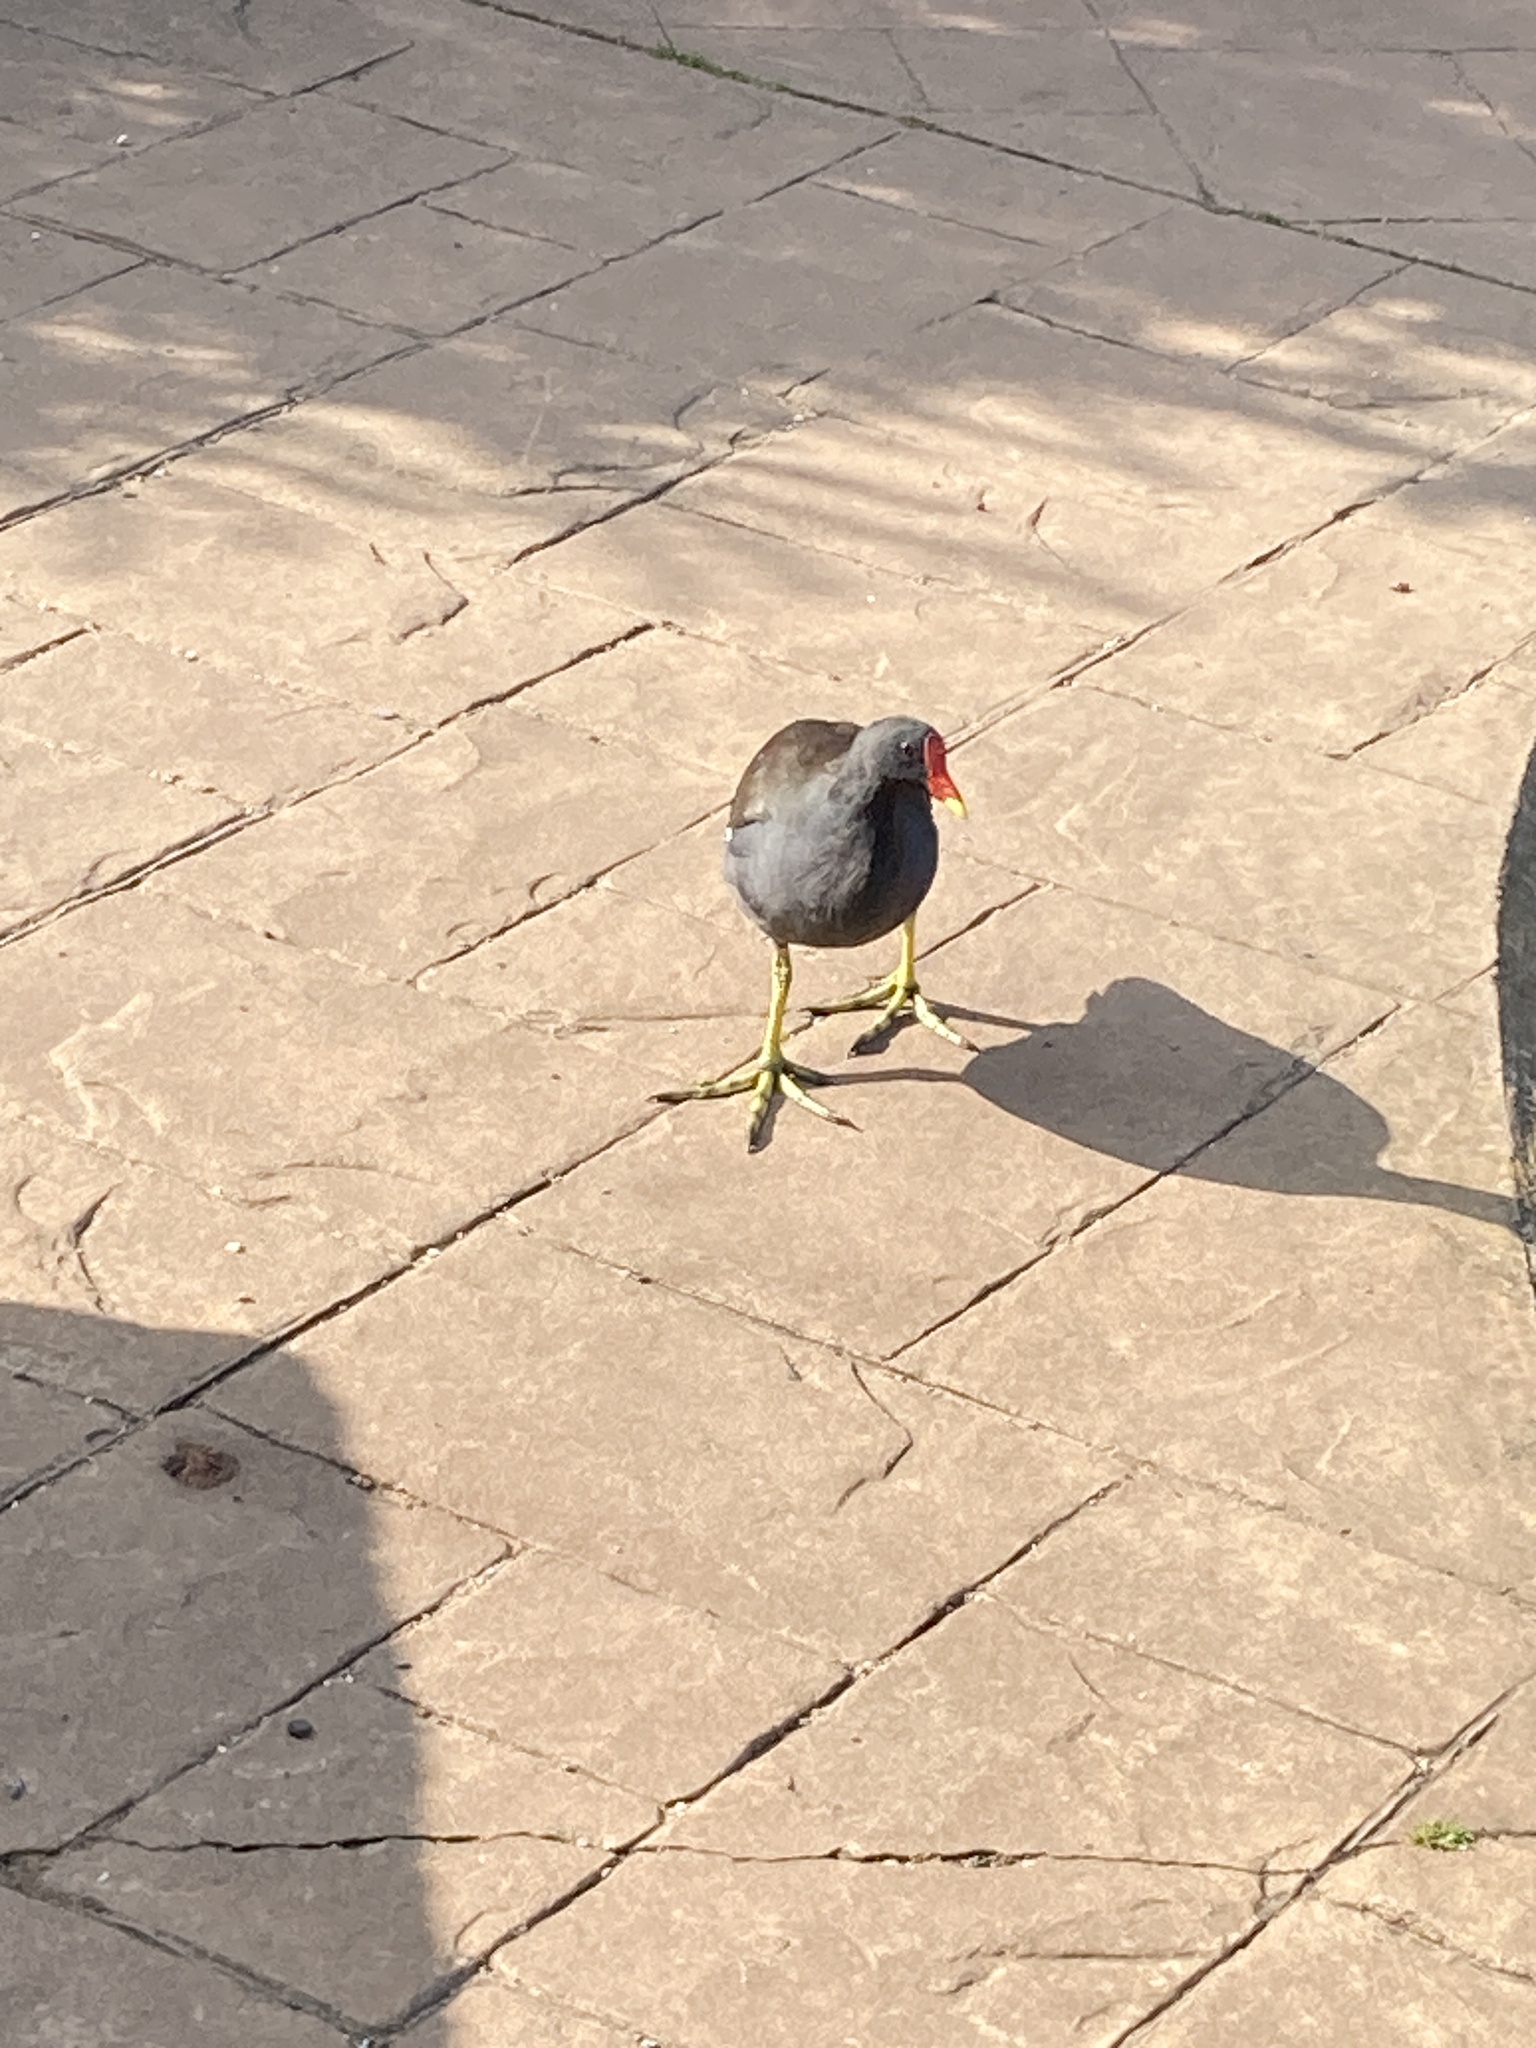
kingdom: Animalia
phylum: Chordata
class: Aves
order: Gruiformes
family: Rallidae
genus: Gallinula
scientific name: Gallinula chloropus
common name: Common moorhen
